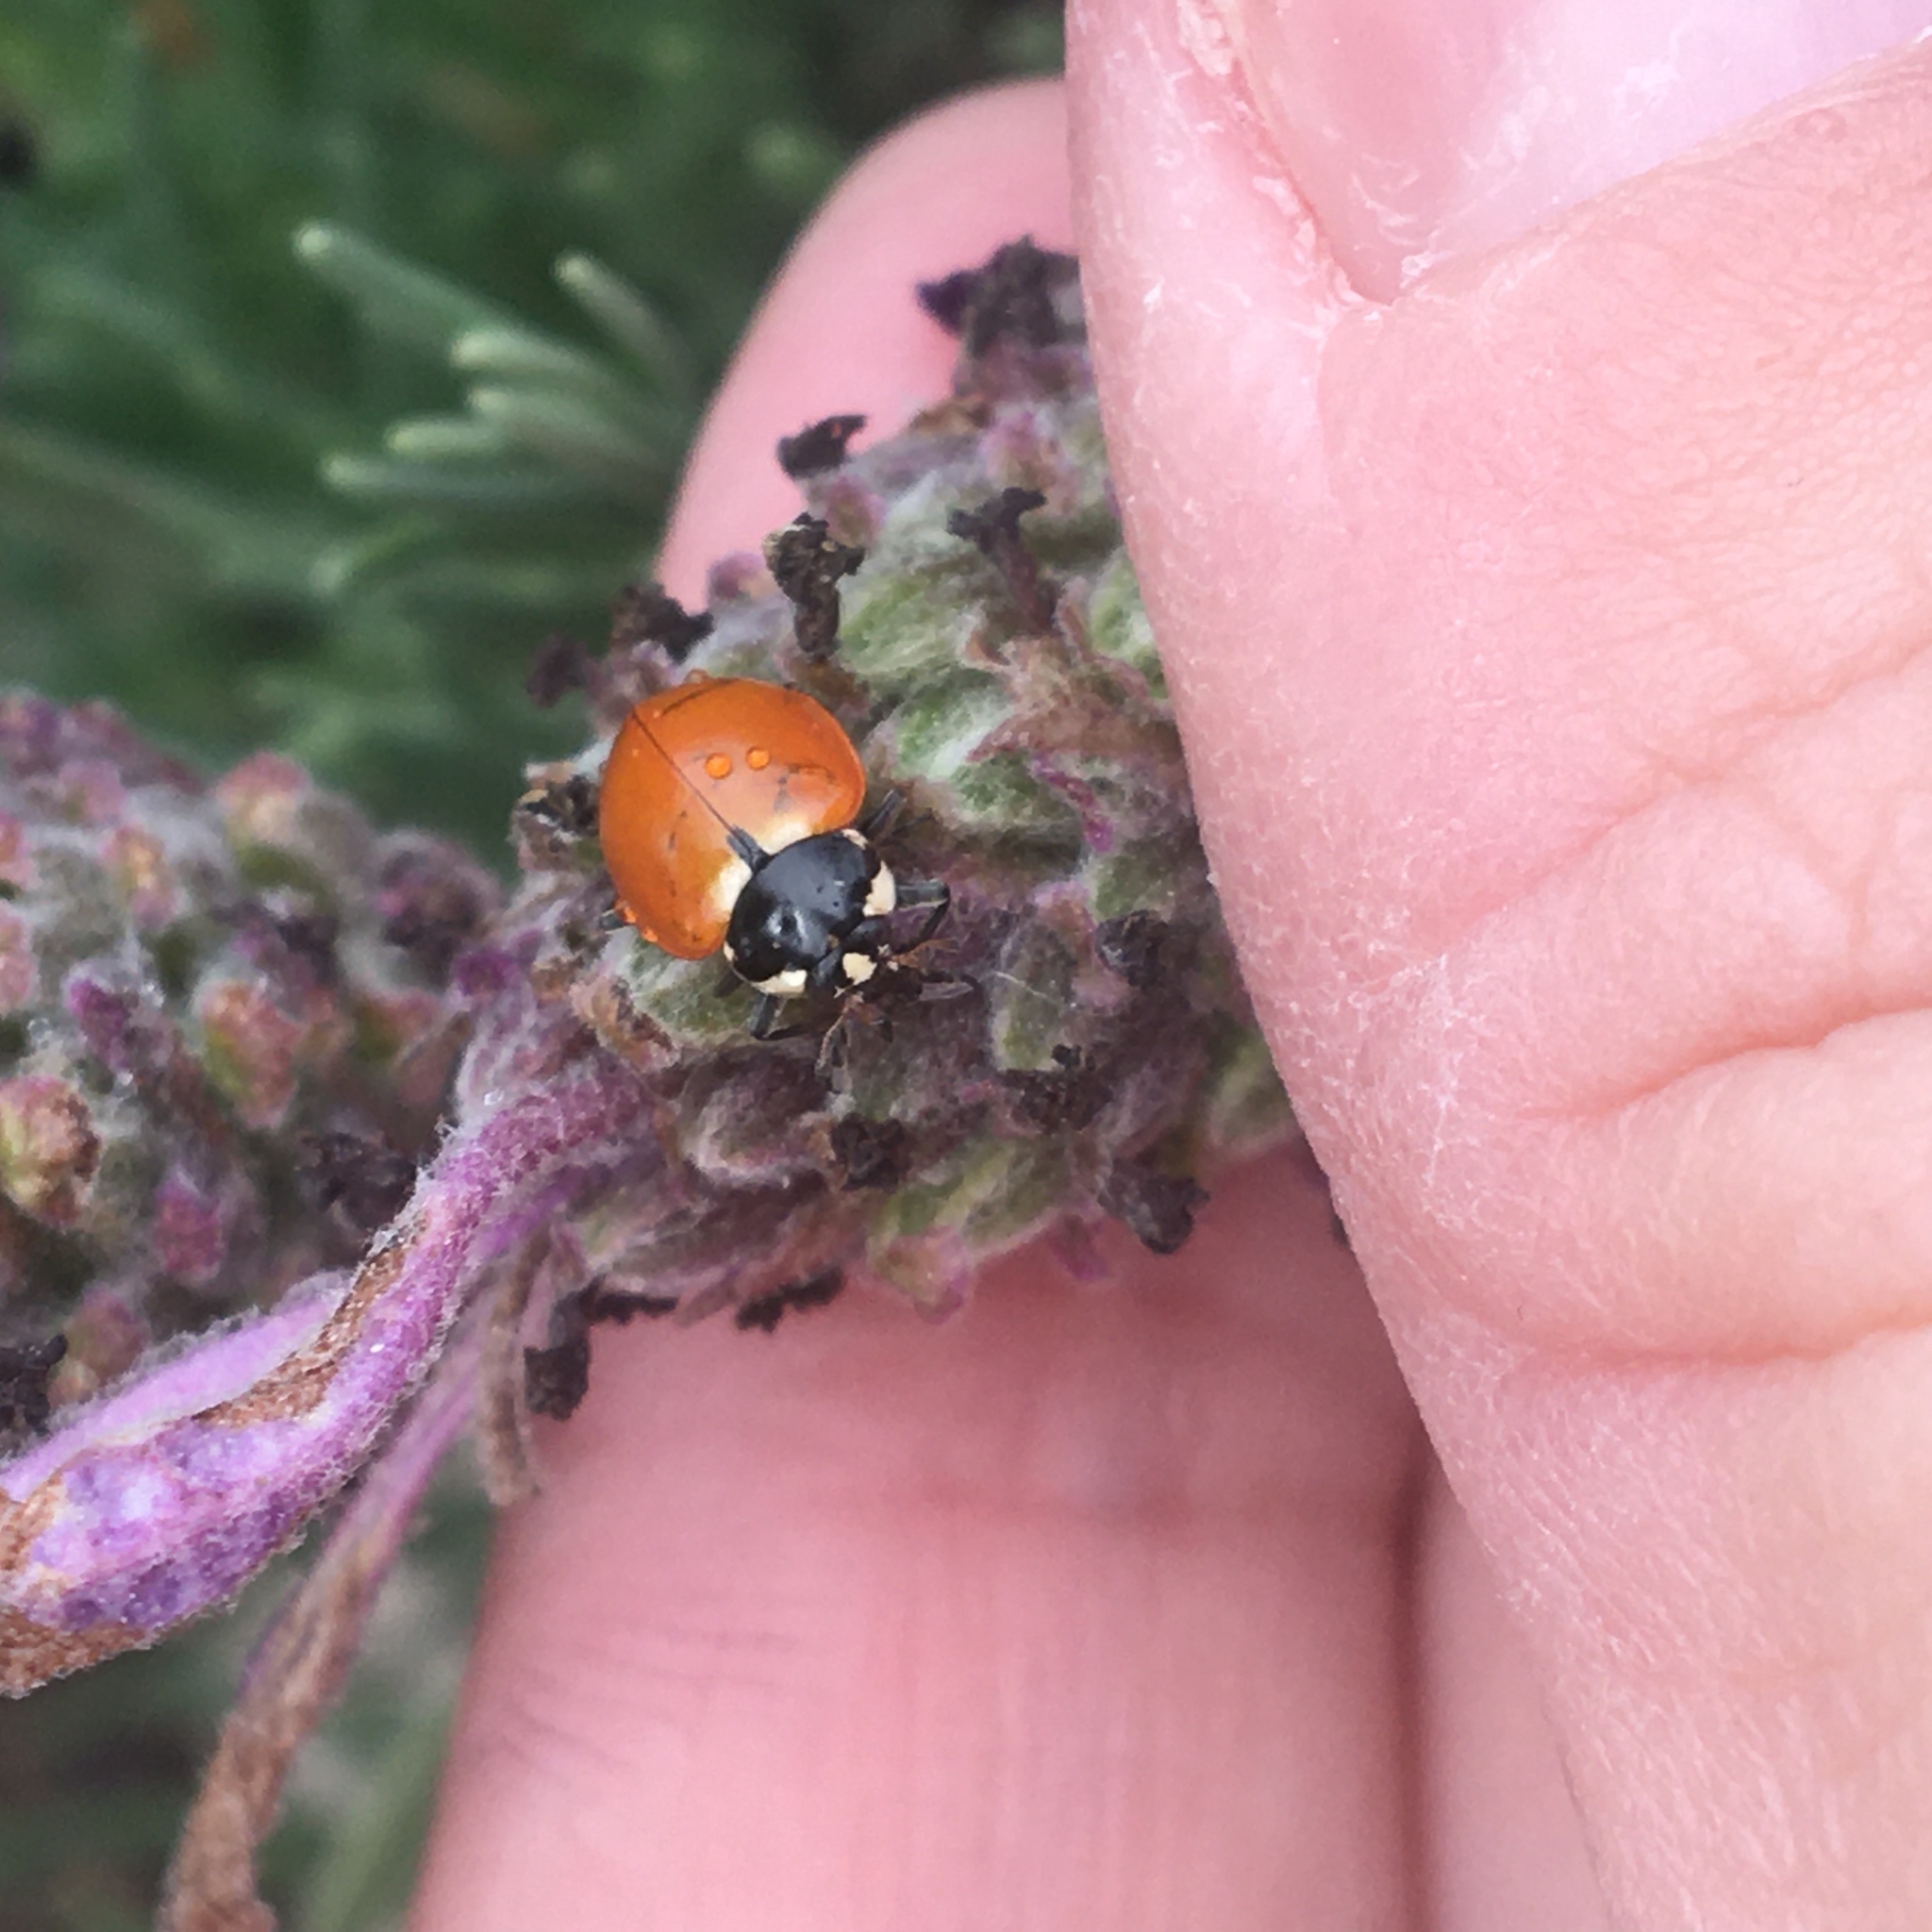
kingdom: Animalia
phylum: Arthropoda
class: Insecta
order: Coleoptera
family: Coccinellidae
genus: Hippodamia
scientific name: Hippodamia quinquesignata
